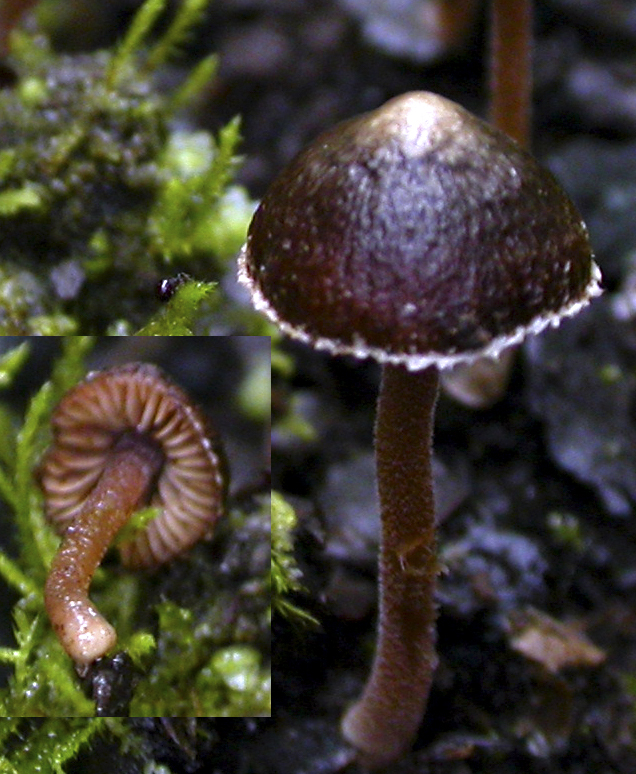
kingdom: Fungi
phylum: Basidiomycota
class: Agaricomycetes
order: Agaricales
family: Inocybaceae
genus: Inocybe
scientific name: Inocybe tenax
